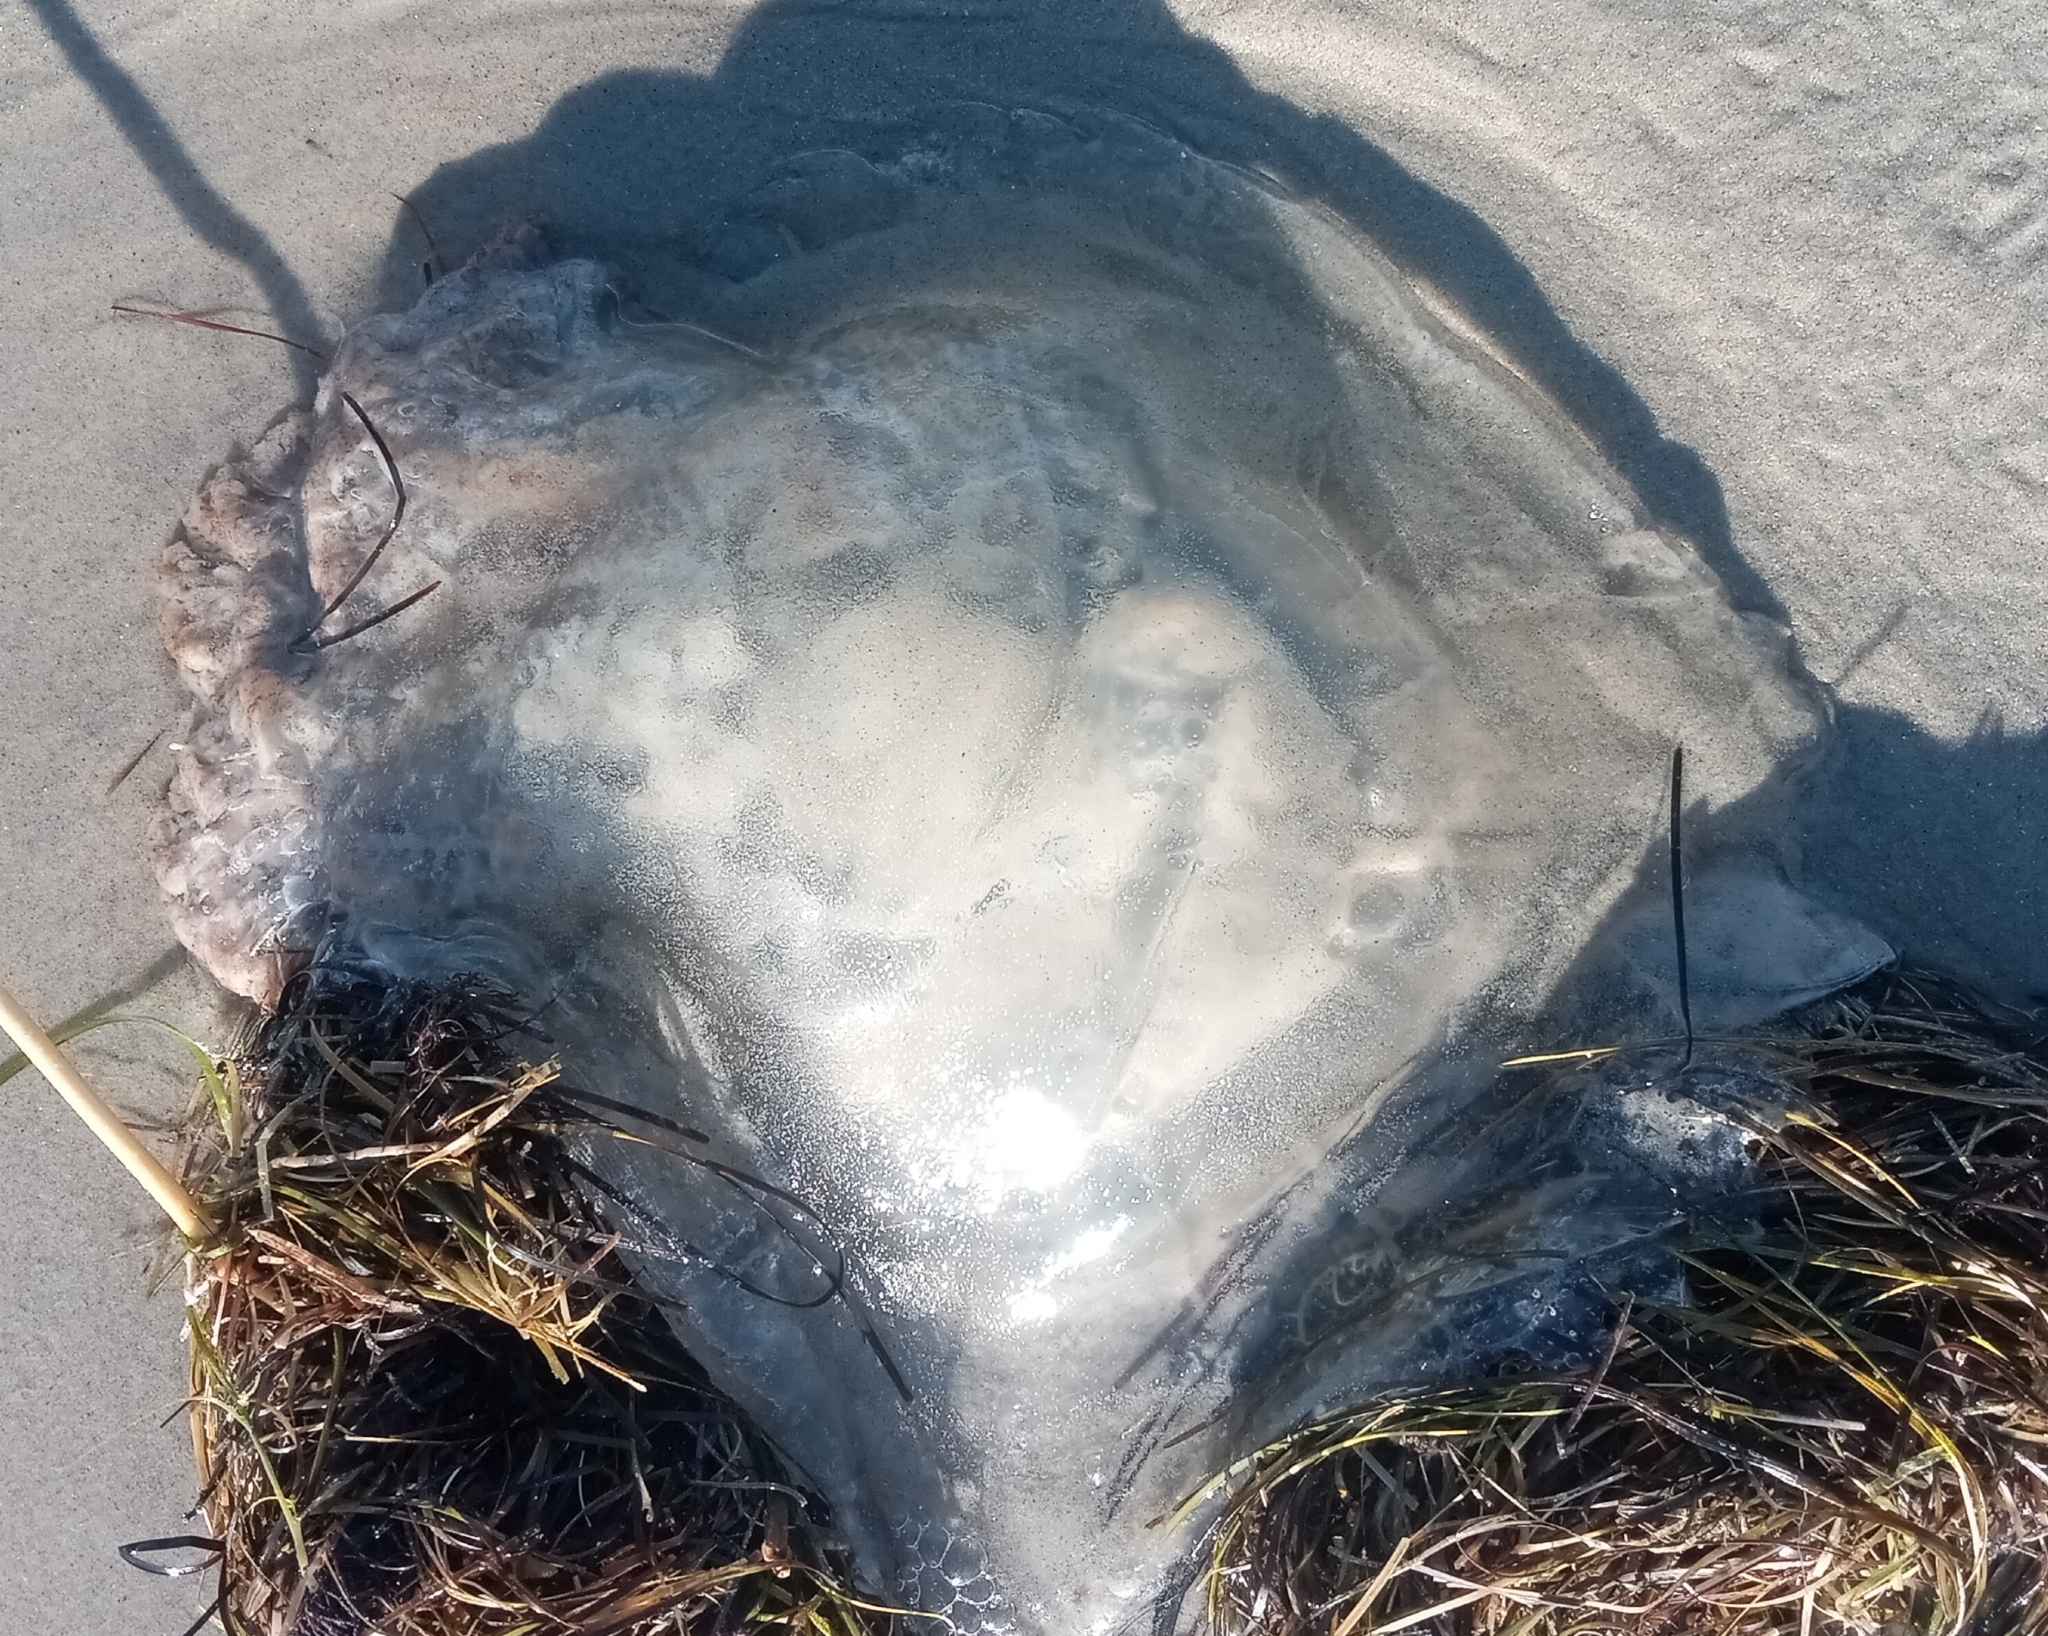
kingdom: Animalia
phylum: Cnidaria
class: Scyphozoa
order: Rhizostomeae
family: Rhizostomatidae
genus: Rhopilema
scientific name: Rhopilema verrilli
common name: Mushroom cap jellyfish
